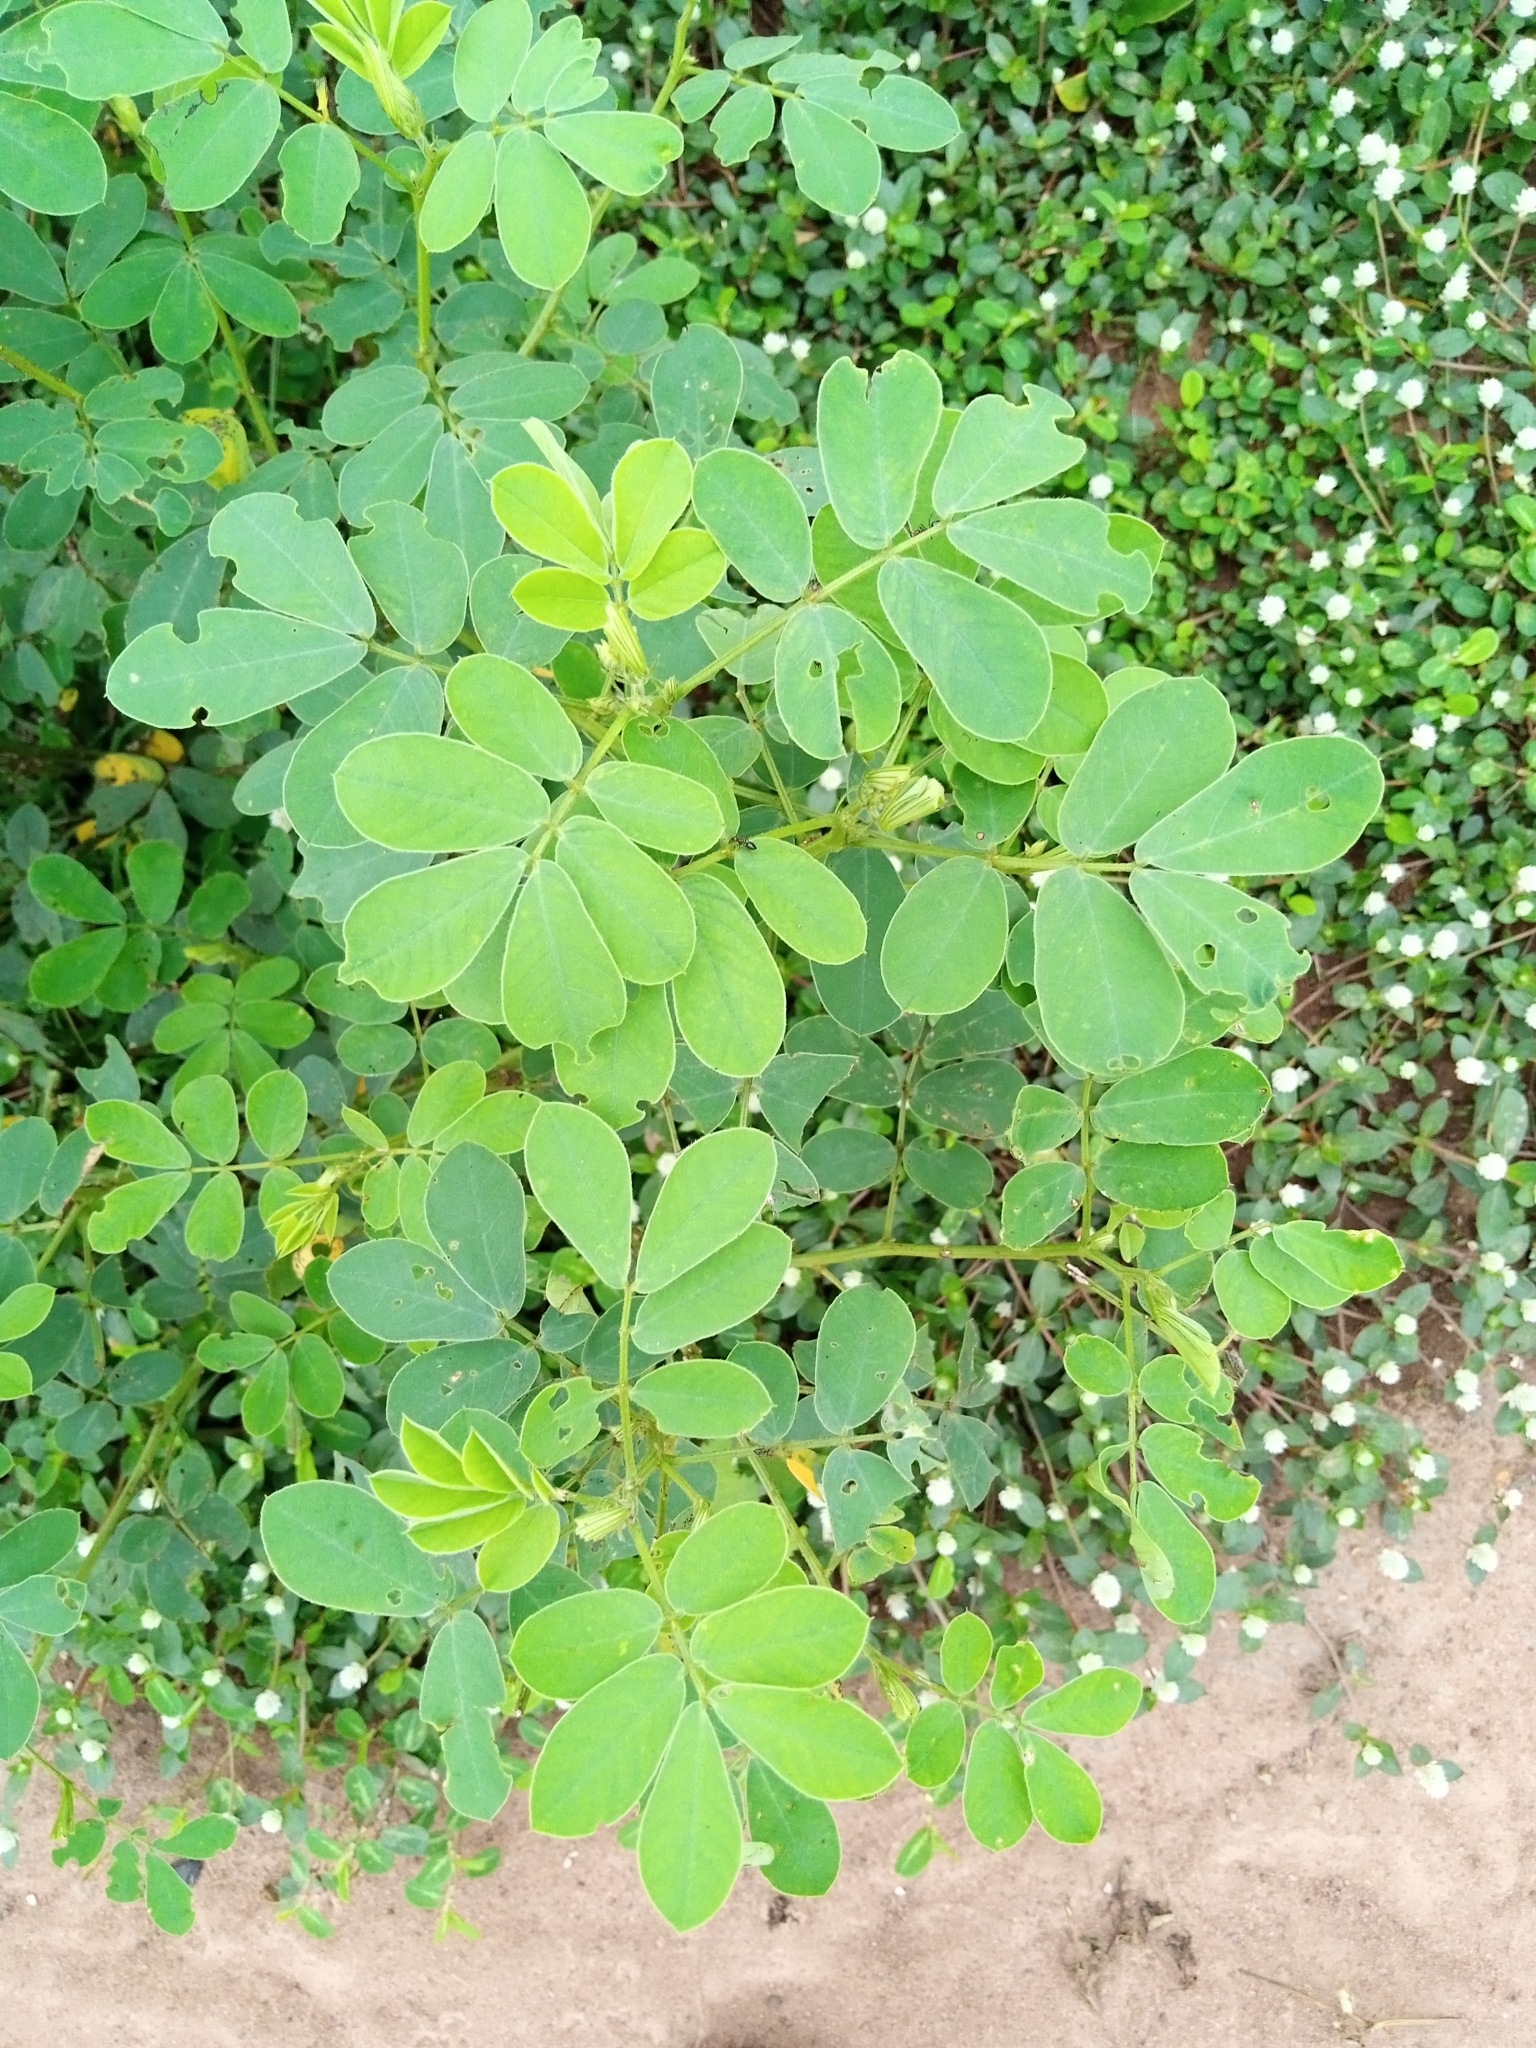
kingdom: Plantae
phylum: Tracheophyta
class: Magnoliopsida
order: Fabales
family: Fabaceae
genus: Senna
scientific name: Senna obtusifolia
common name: Java-bean
